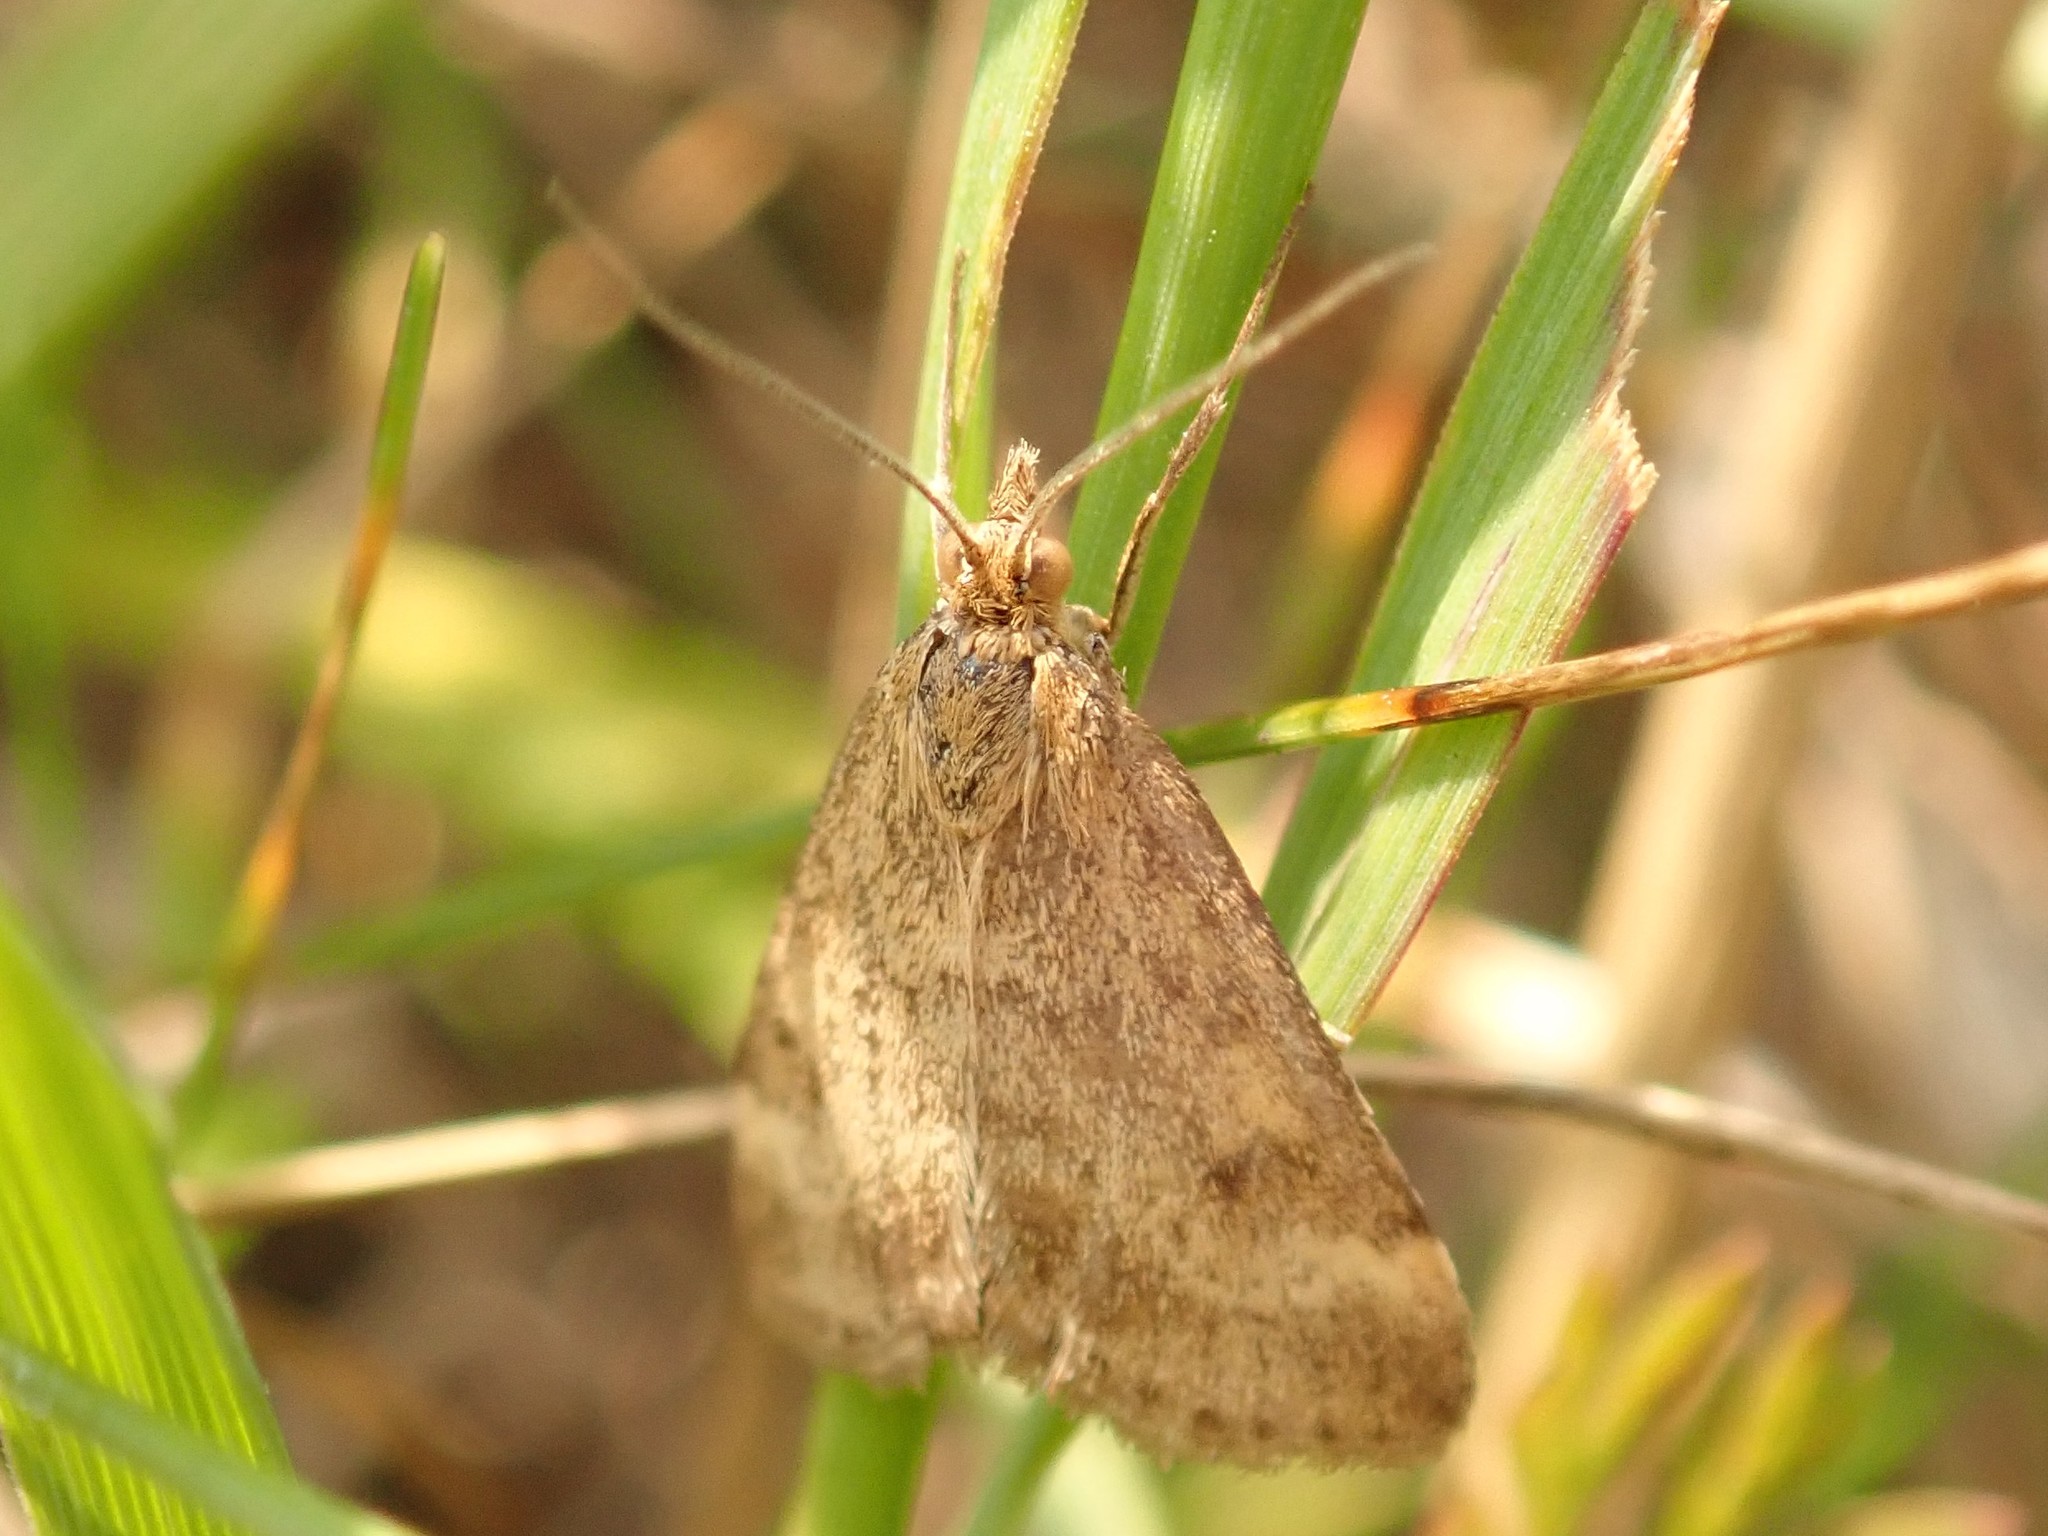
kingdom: Animalia
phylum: Arthropoda
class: Insecta
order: Lepidoptera
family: Crambidae
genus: Pyrausta
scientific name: Pyrausta despicata
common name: Straw-barred pearl
